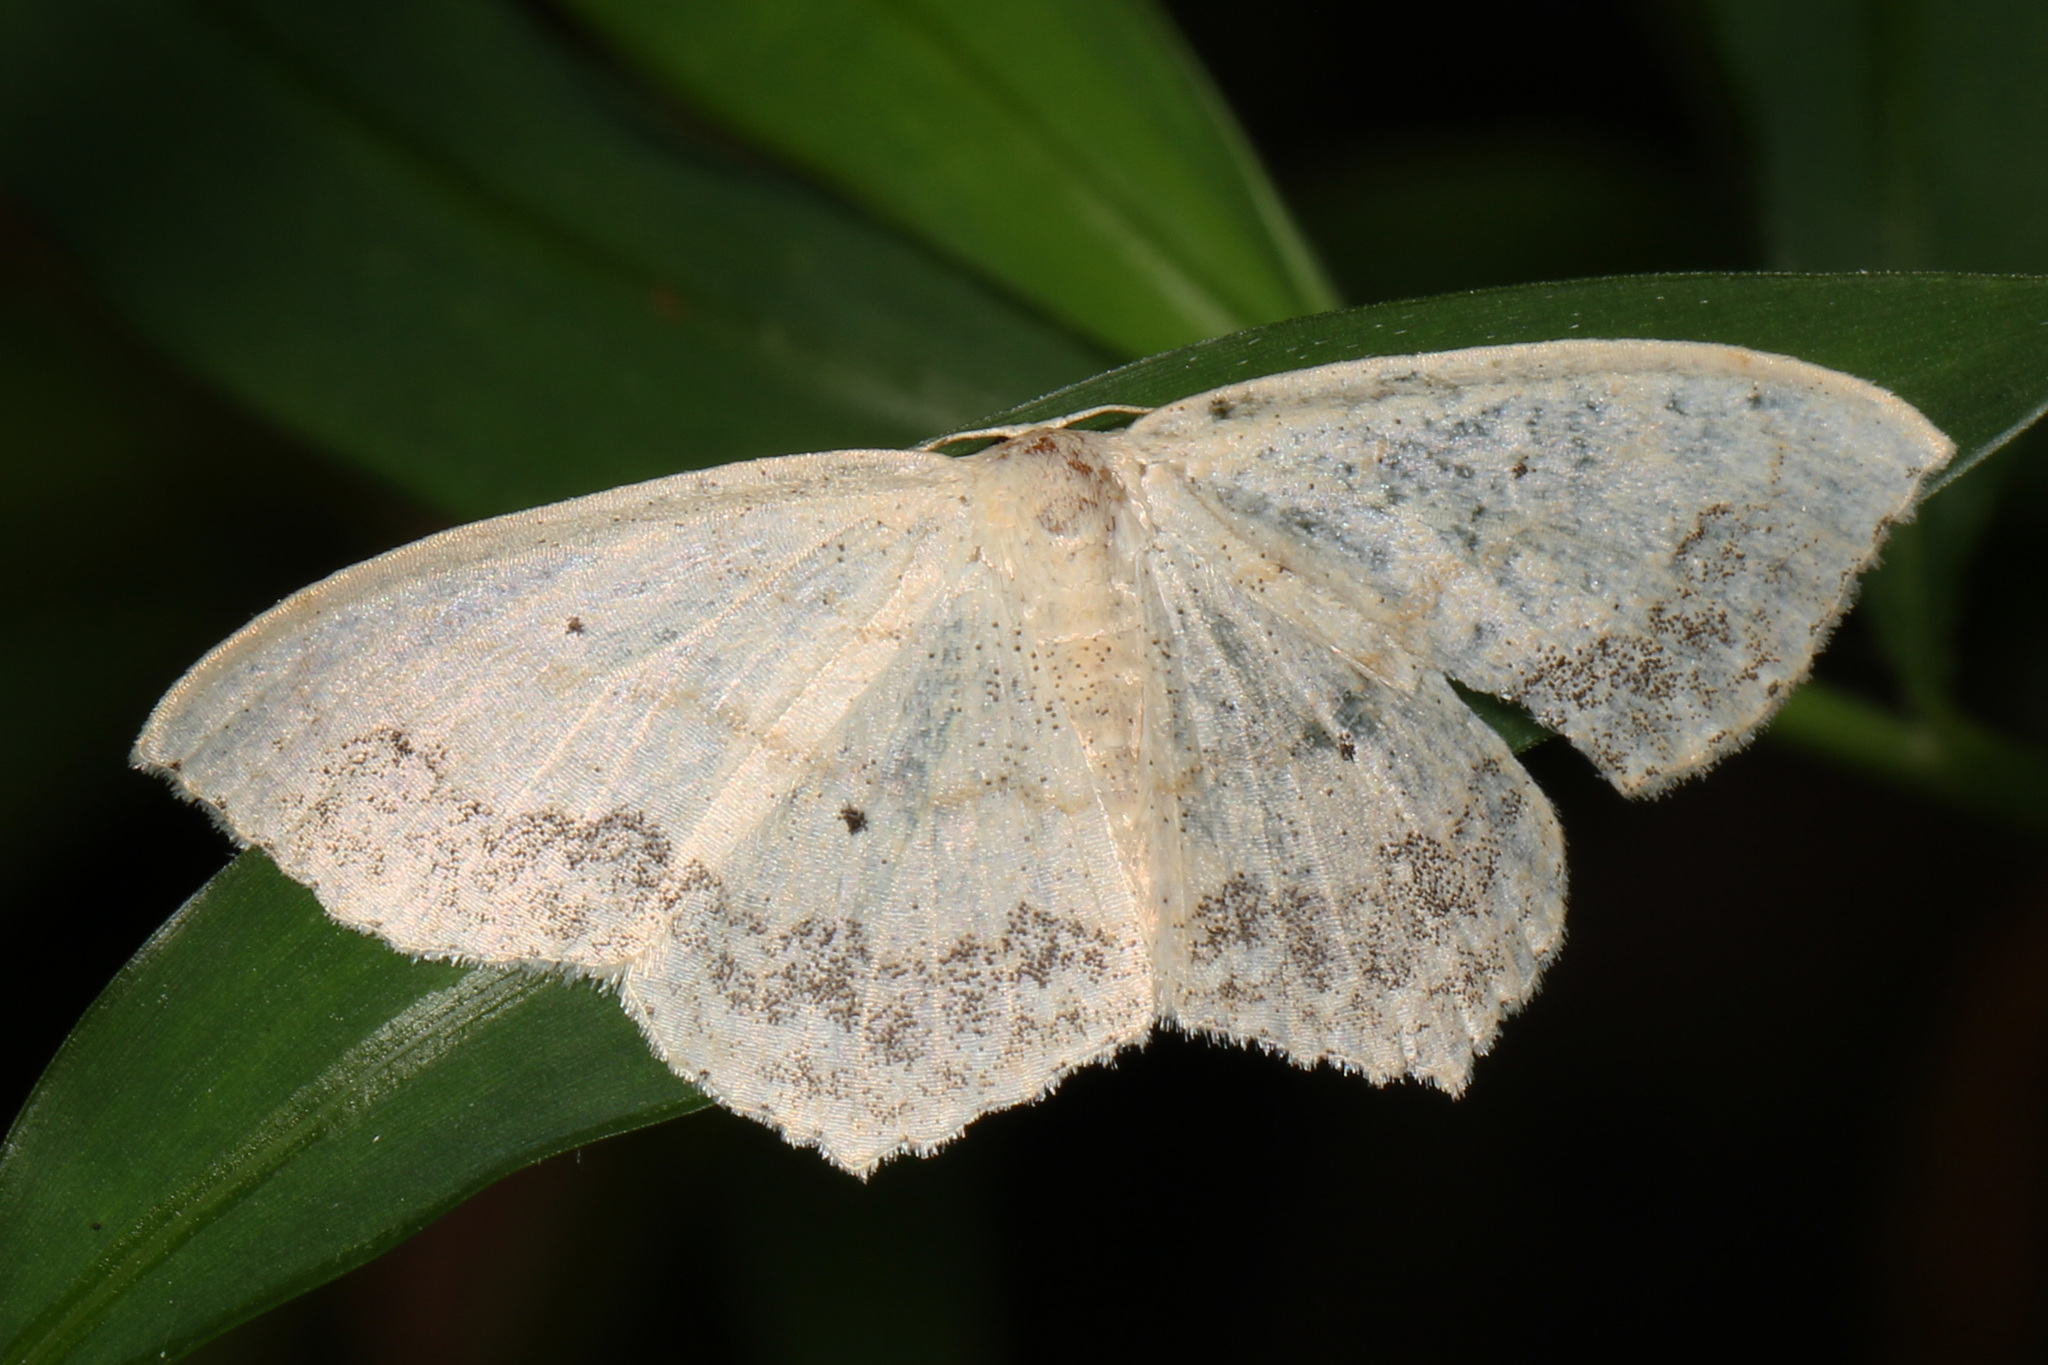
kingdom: Animalia
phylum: Arthropoda
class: Insecta
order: Lepidoptera
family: Geometridae
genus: Scopula
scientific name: Scopula limboundata
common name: Large lace border
